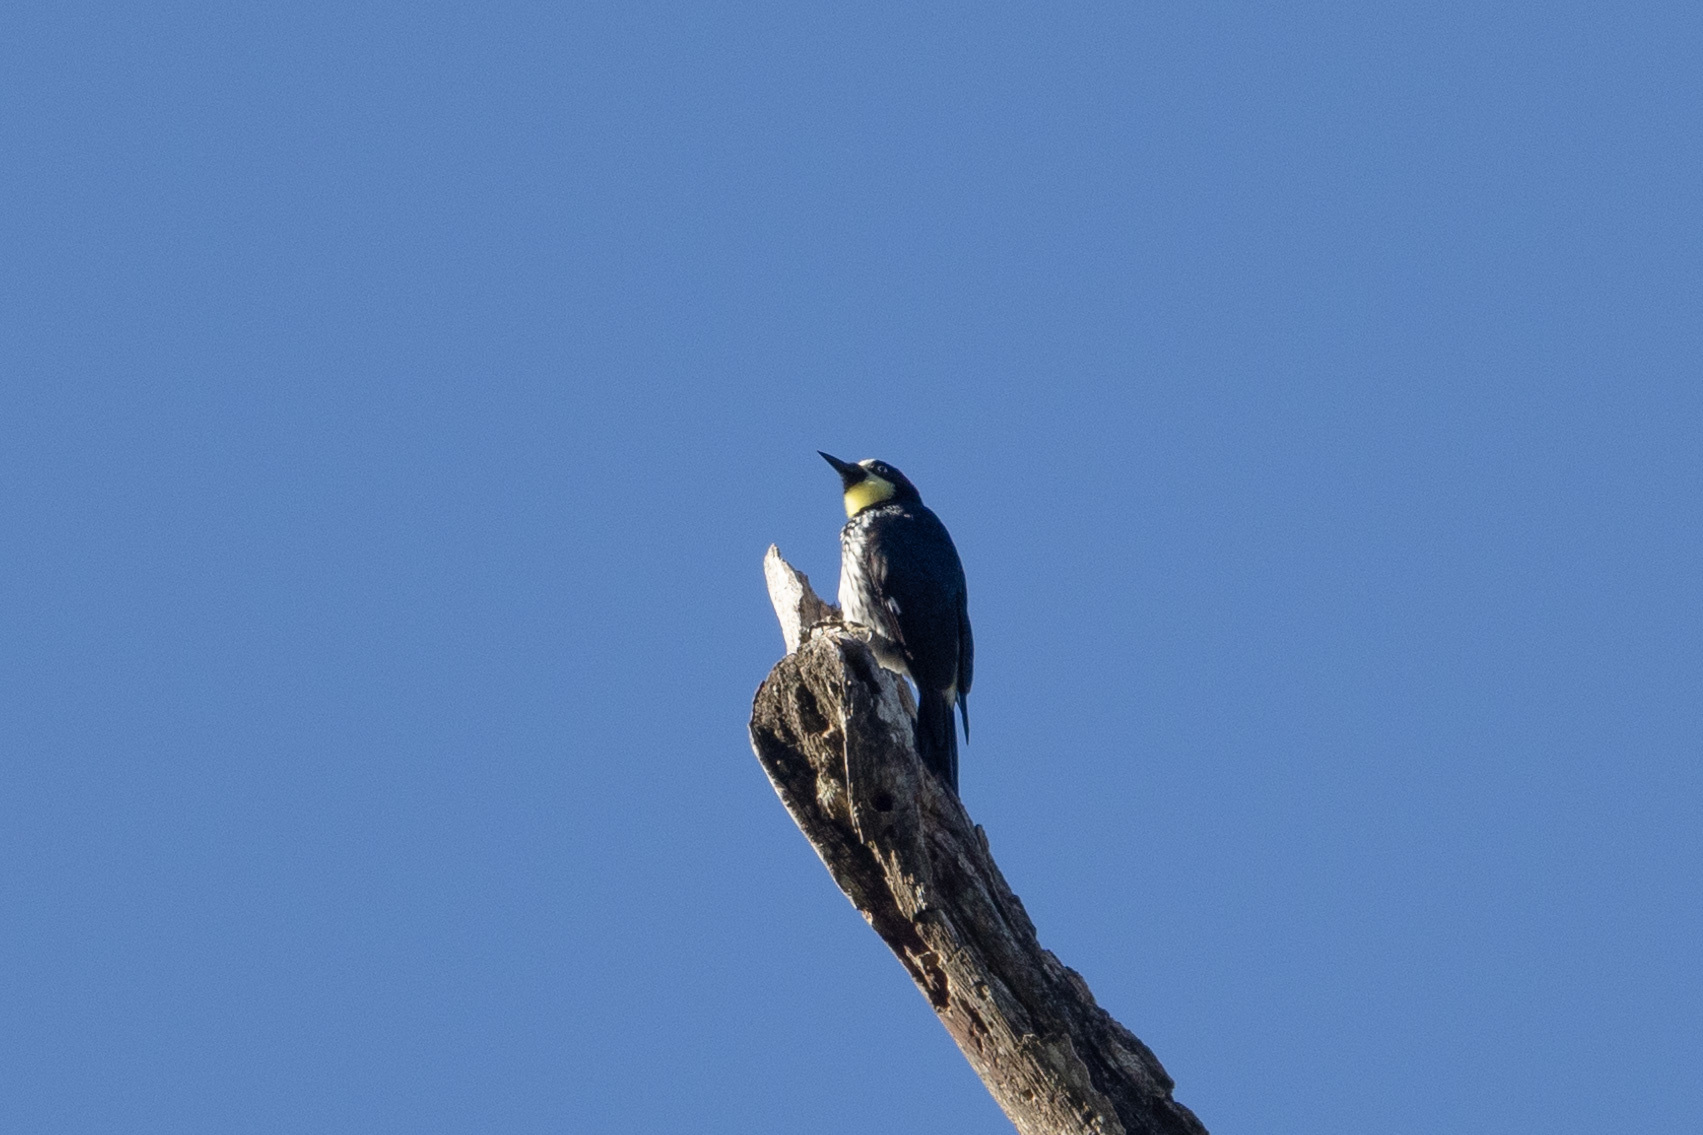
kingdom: Animalia
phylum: Chordata
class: Aves
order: Piciformes
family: Picidae
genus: Melanerpes
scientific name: Melanerpes formicivorus
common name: Acorn woodpecker
